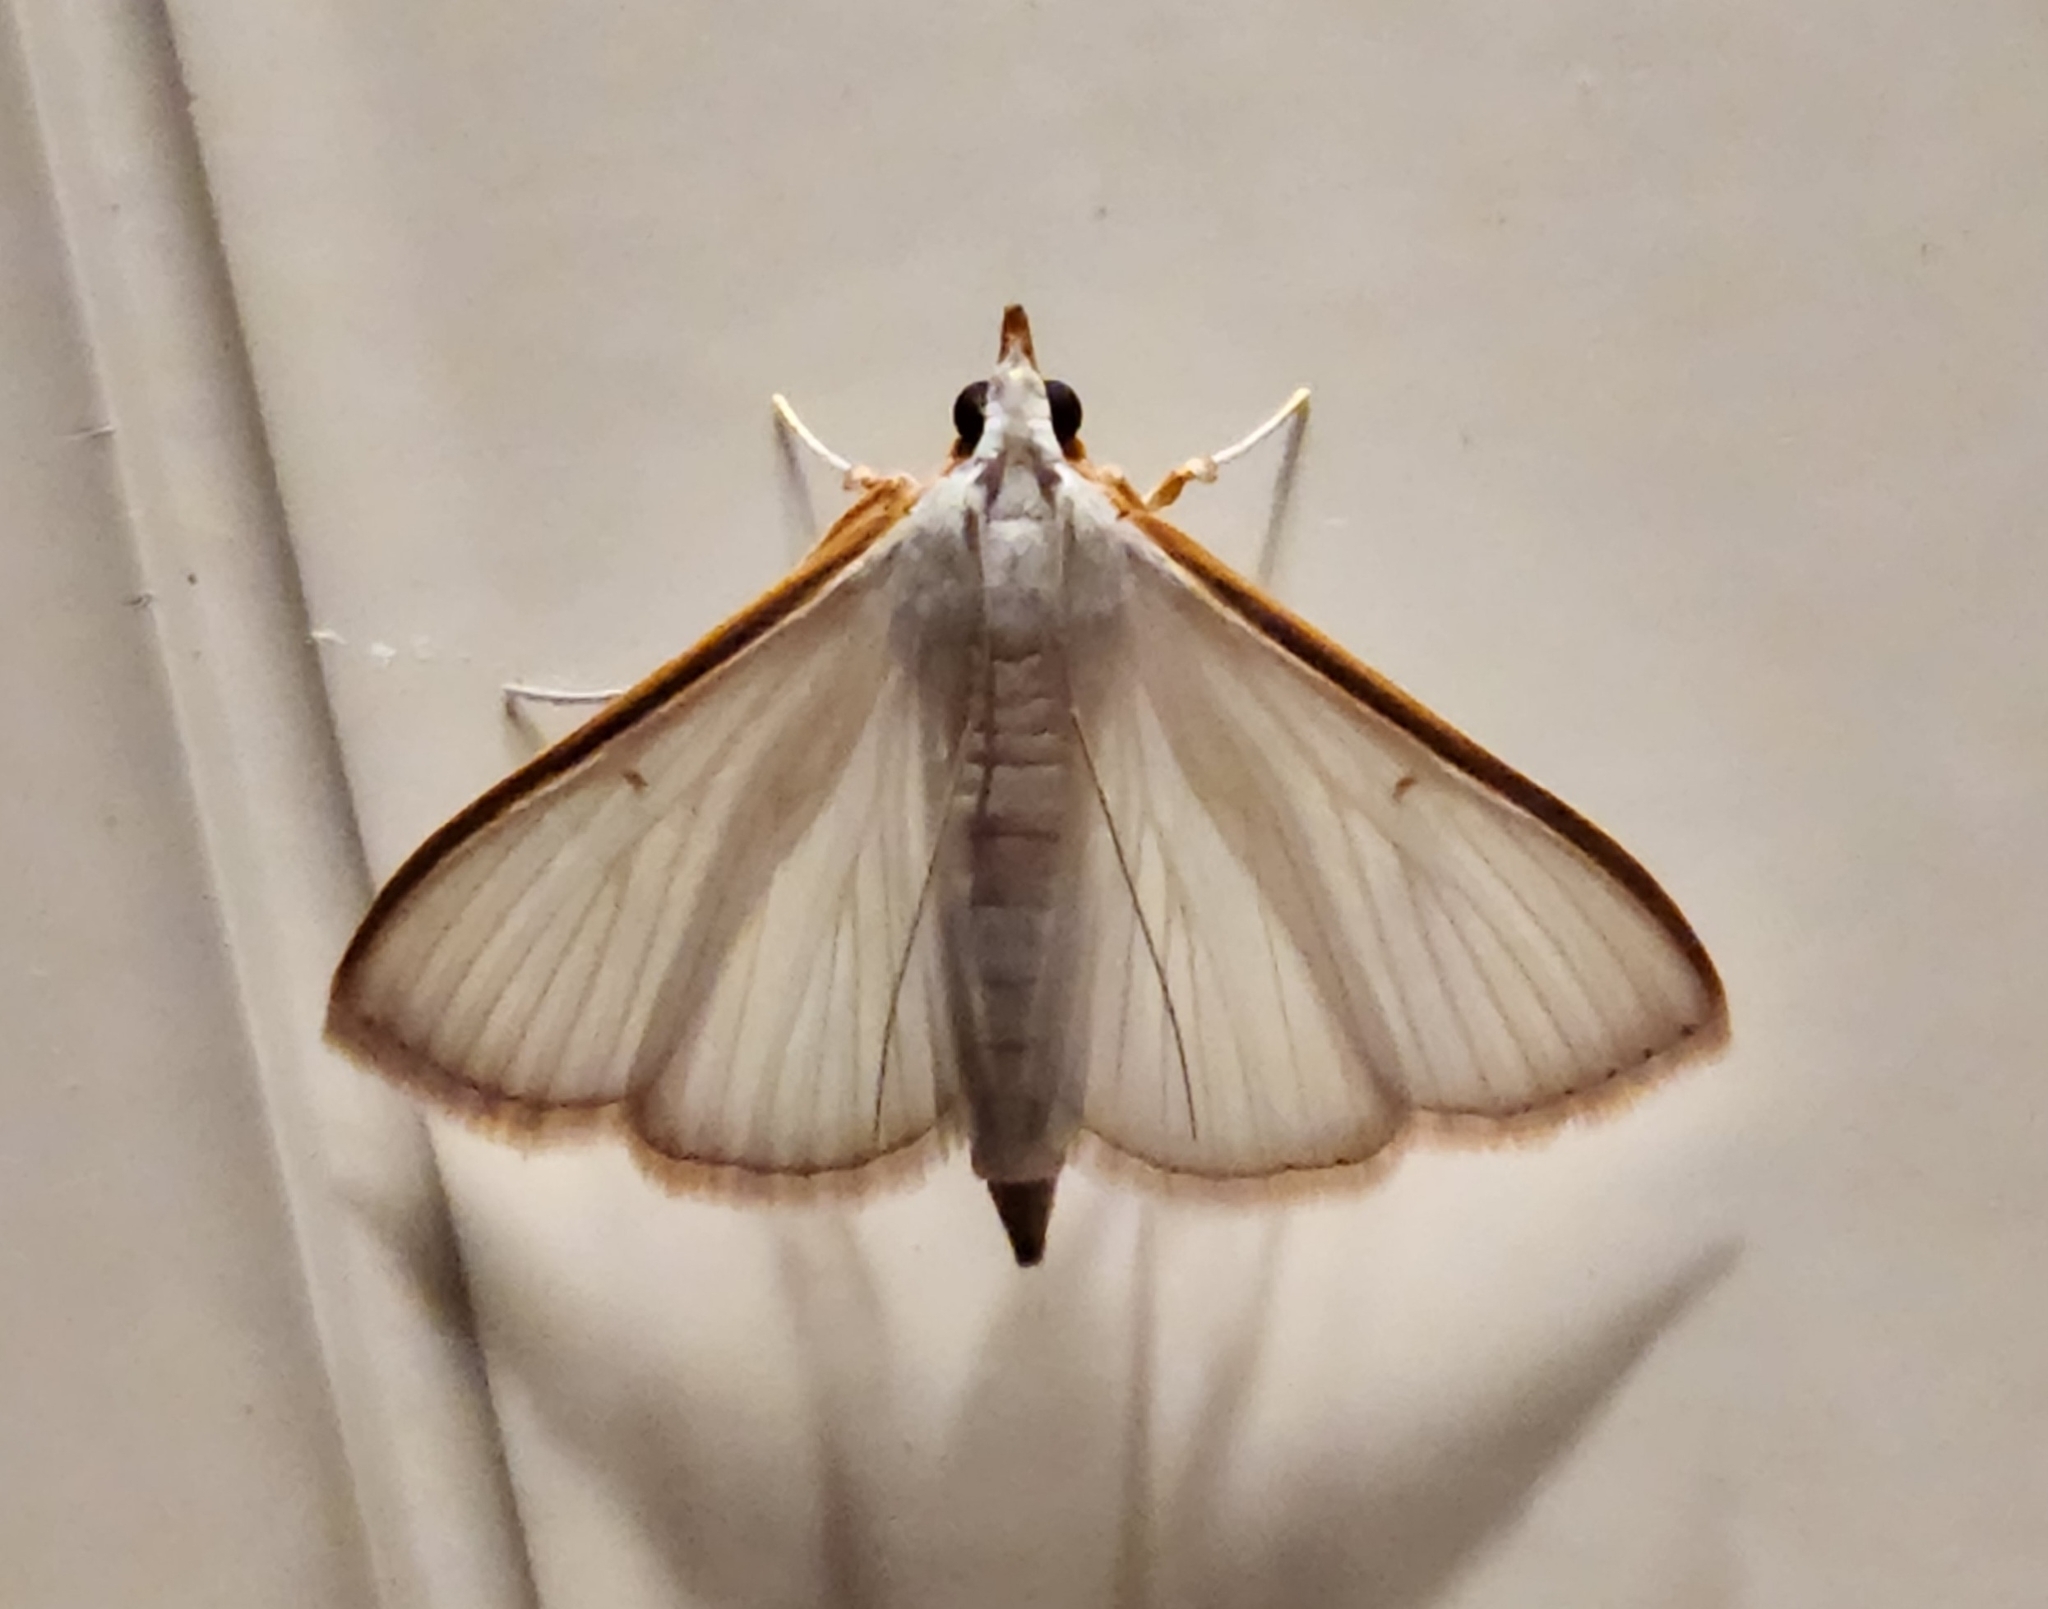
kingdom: Animalia
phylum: Arthropoda
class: Insecta
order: Lepidoptera
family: Crambidae
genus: Diaphania
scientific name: Diaphania costata
